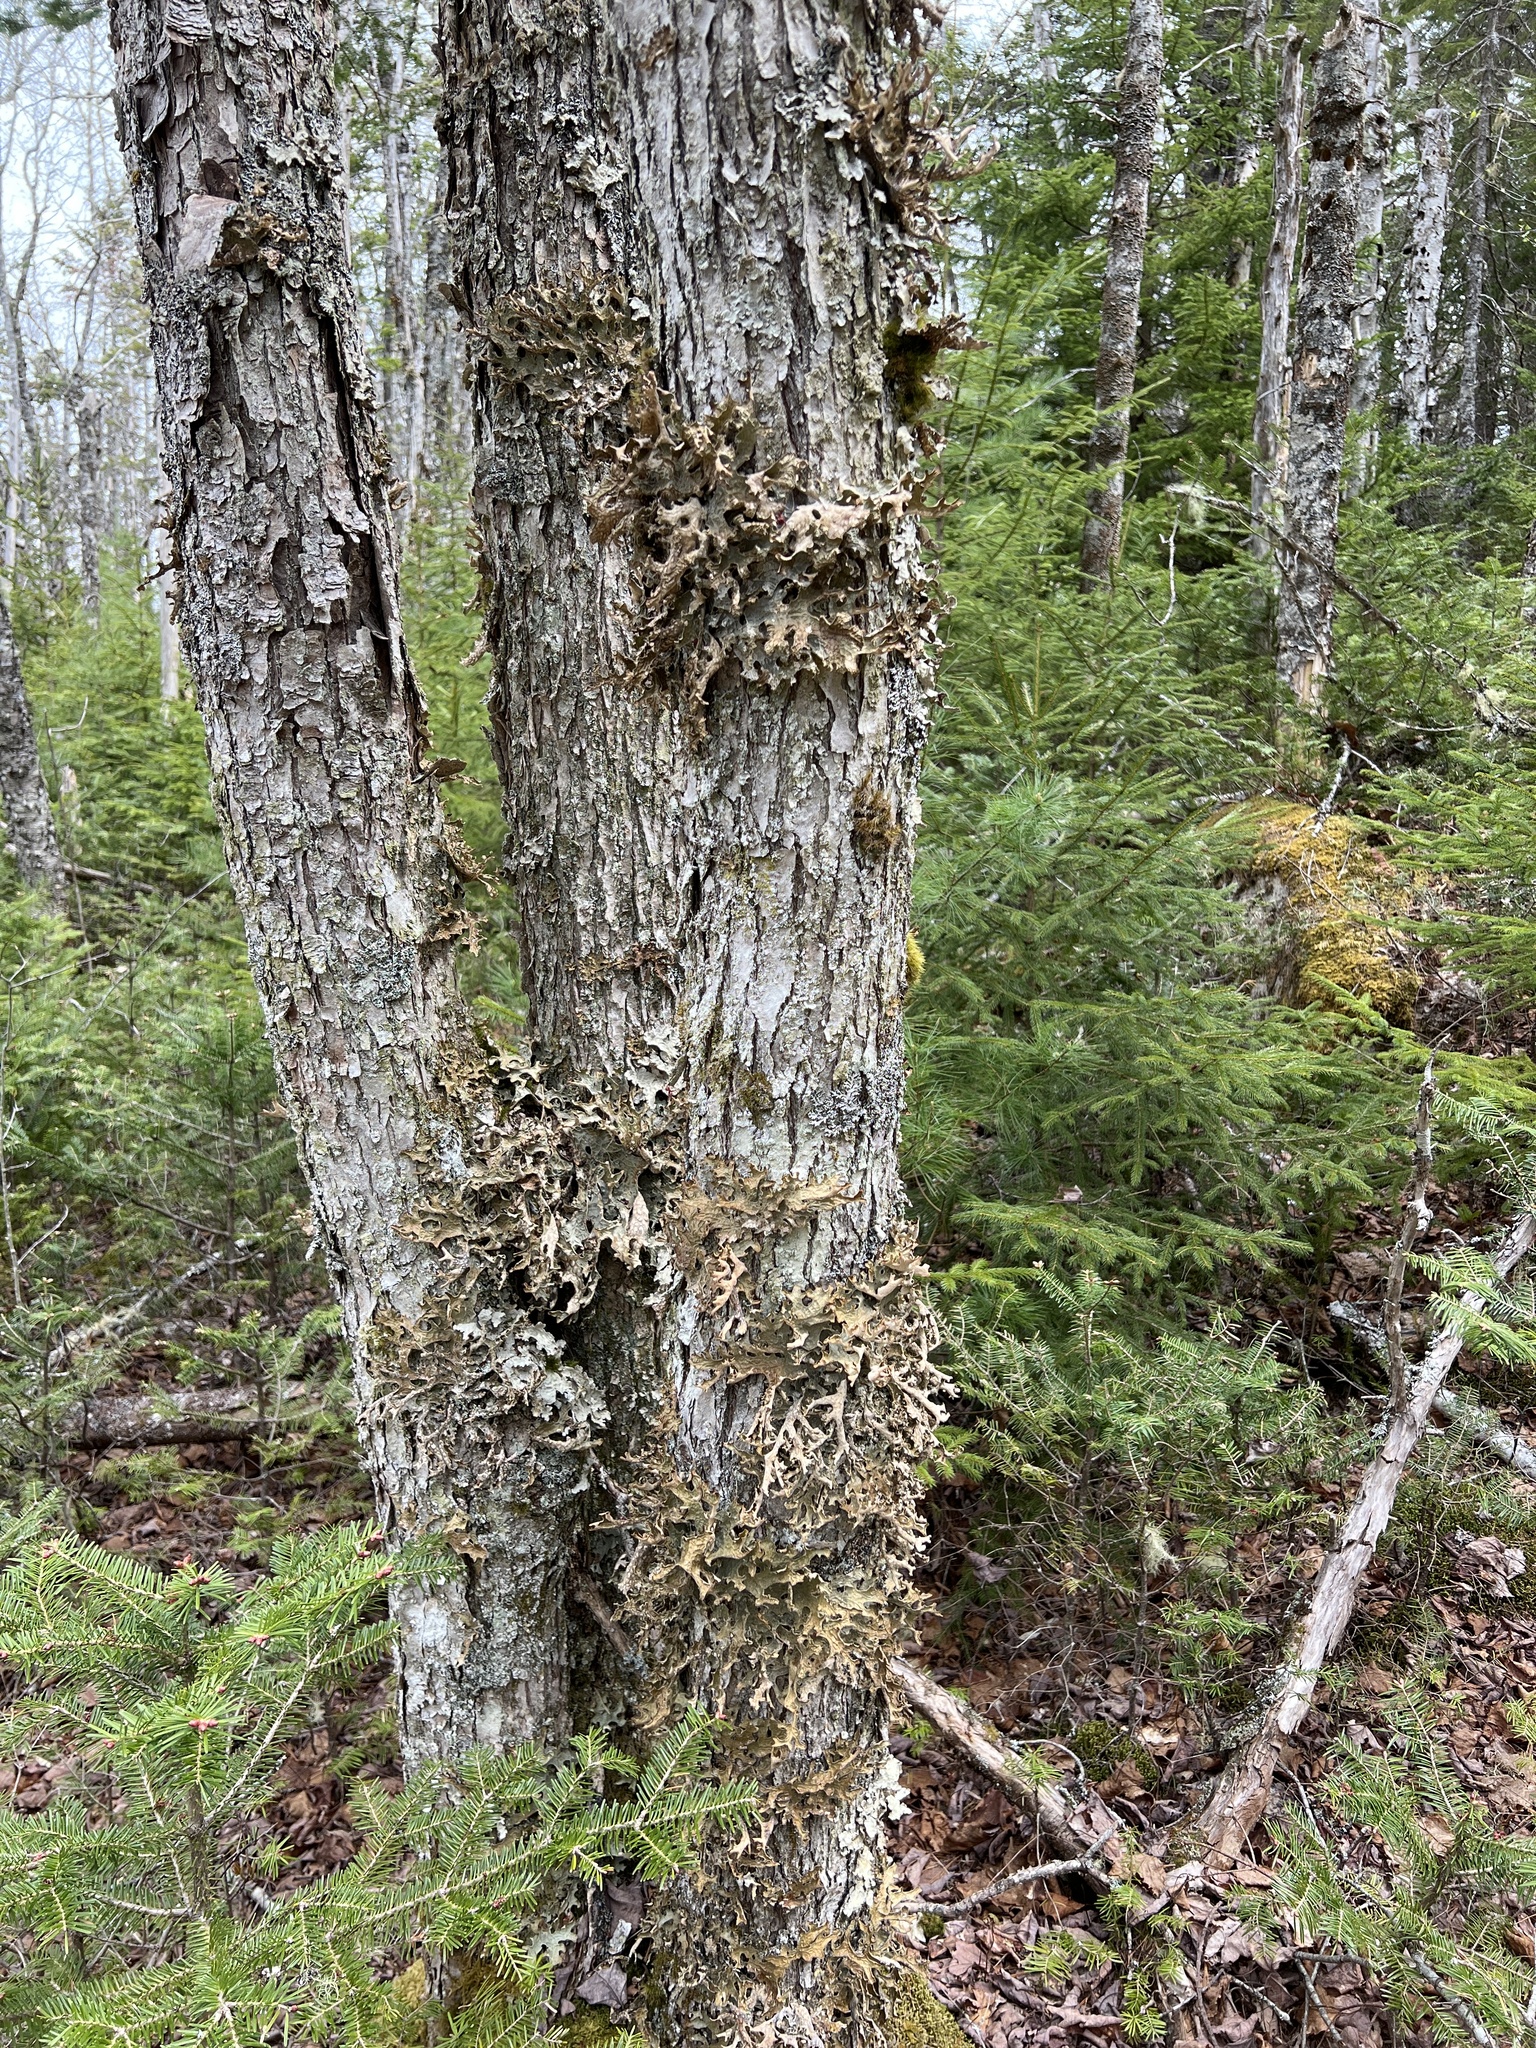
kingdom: Fungi
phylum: Ascomycota
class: Lecanoromycetes
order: Peltigerales
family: Lobariaceae
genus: Lobaria
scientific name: Lobaria pulmonaria
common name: Lungwort
